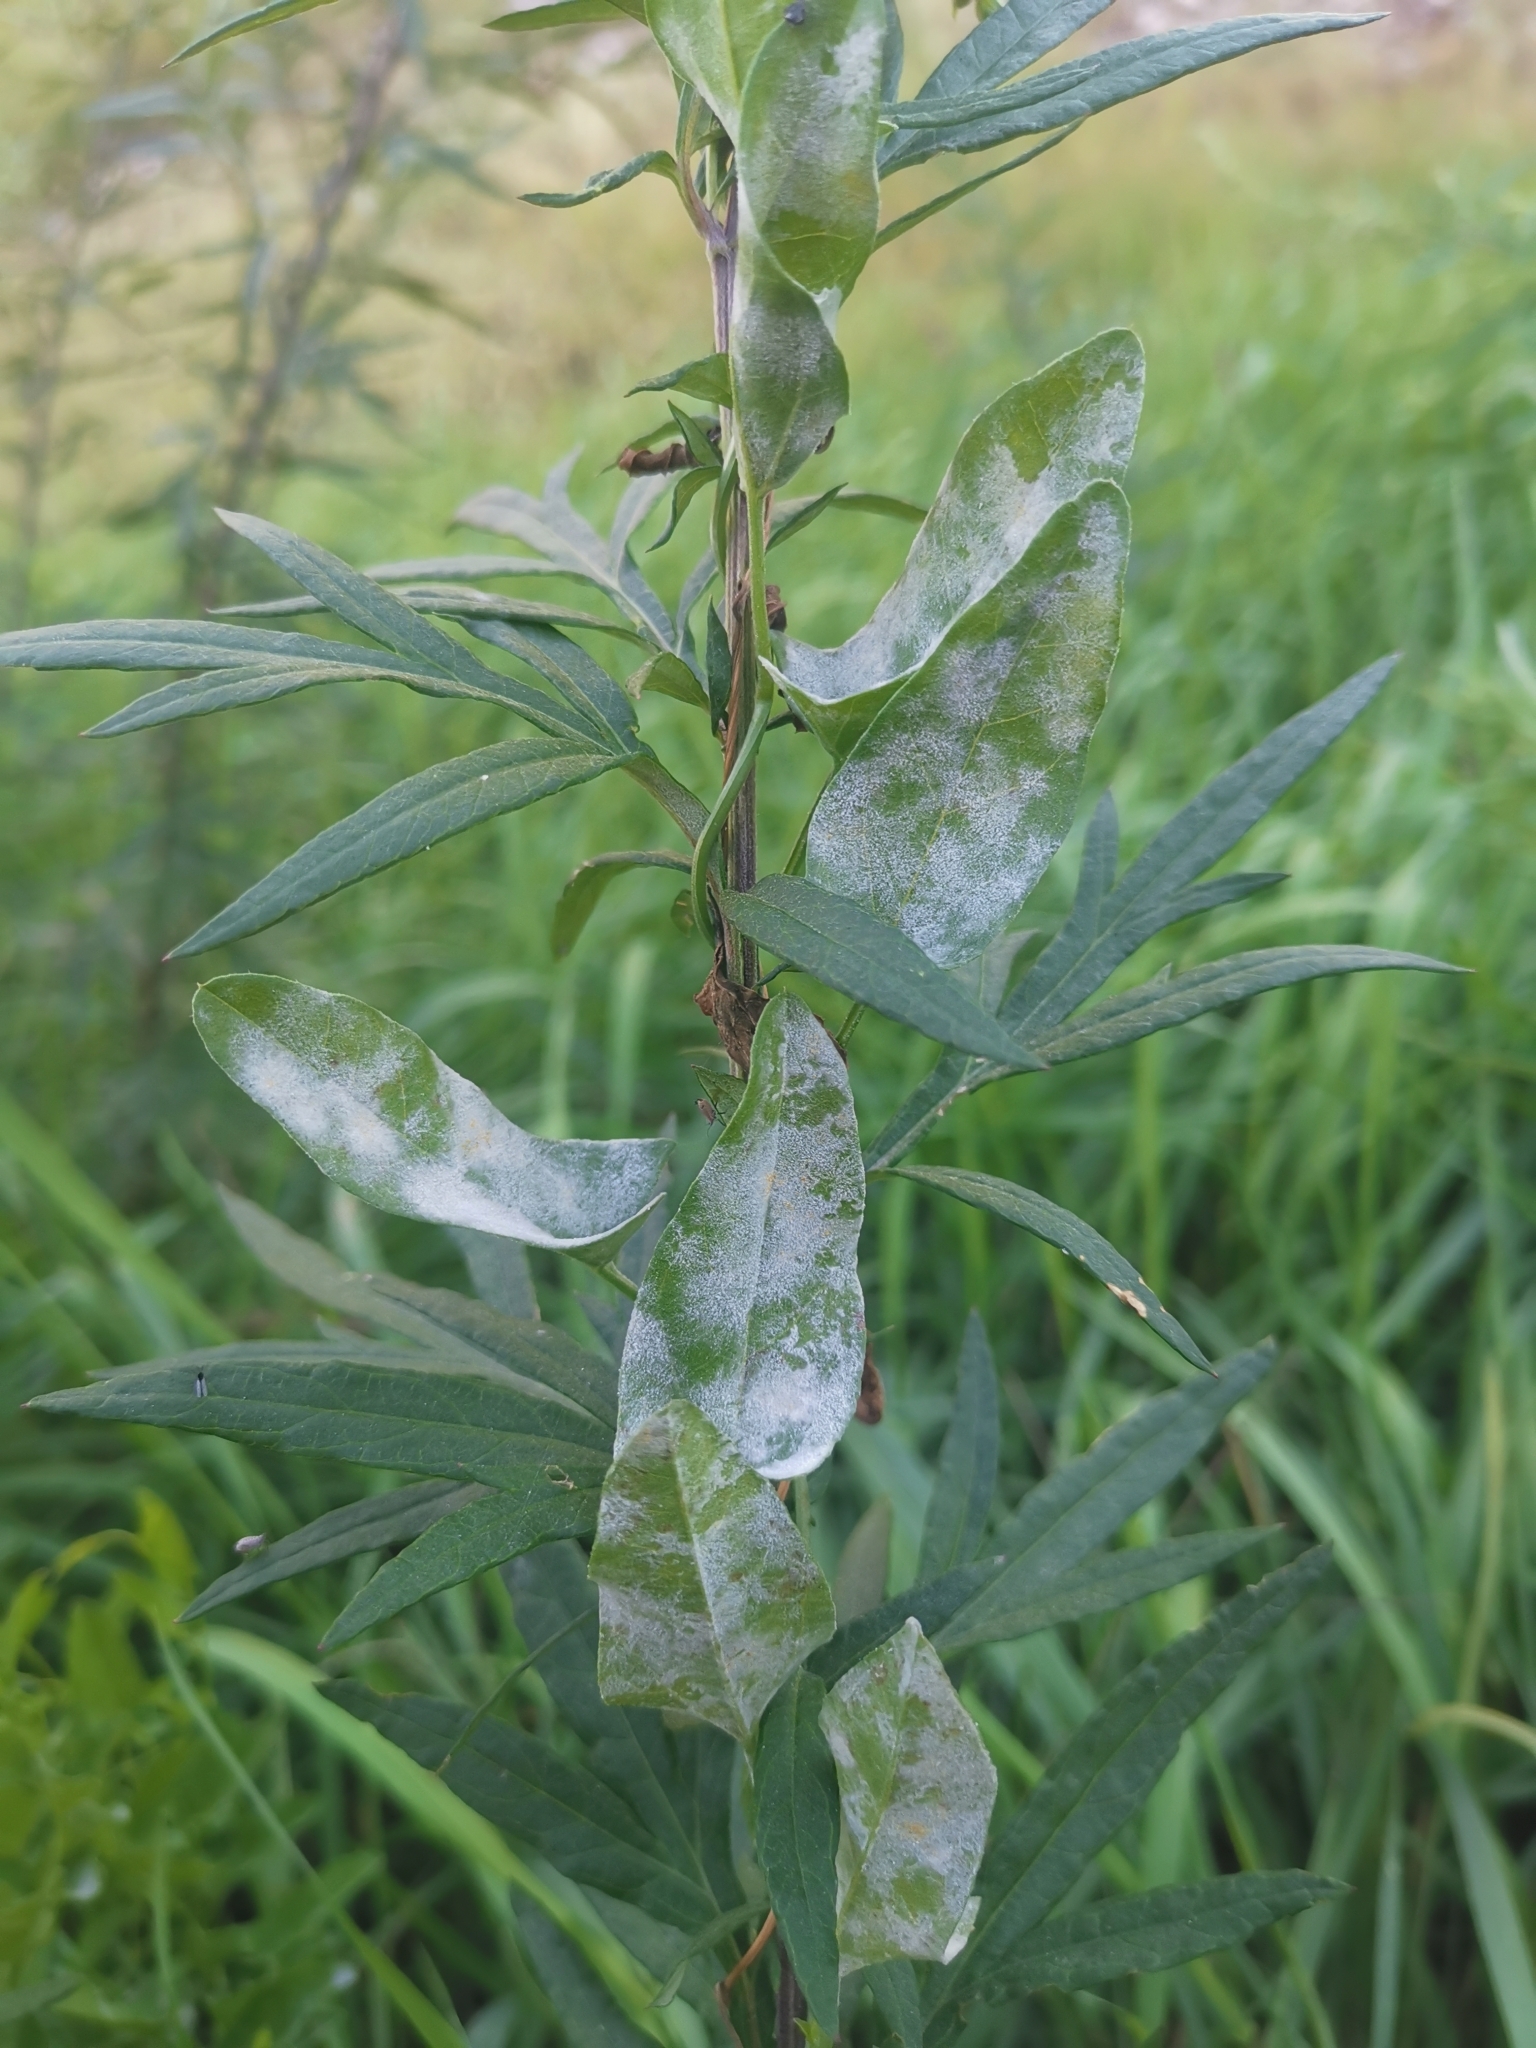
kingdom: Fungi
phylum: Ascomycota
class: Leotiomycetes
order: Helotiales
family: Erysiphaceae
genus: Erysiphe
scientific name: Erysiphe convolvuli
